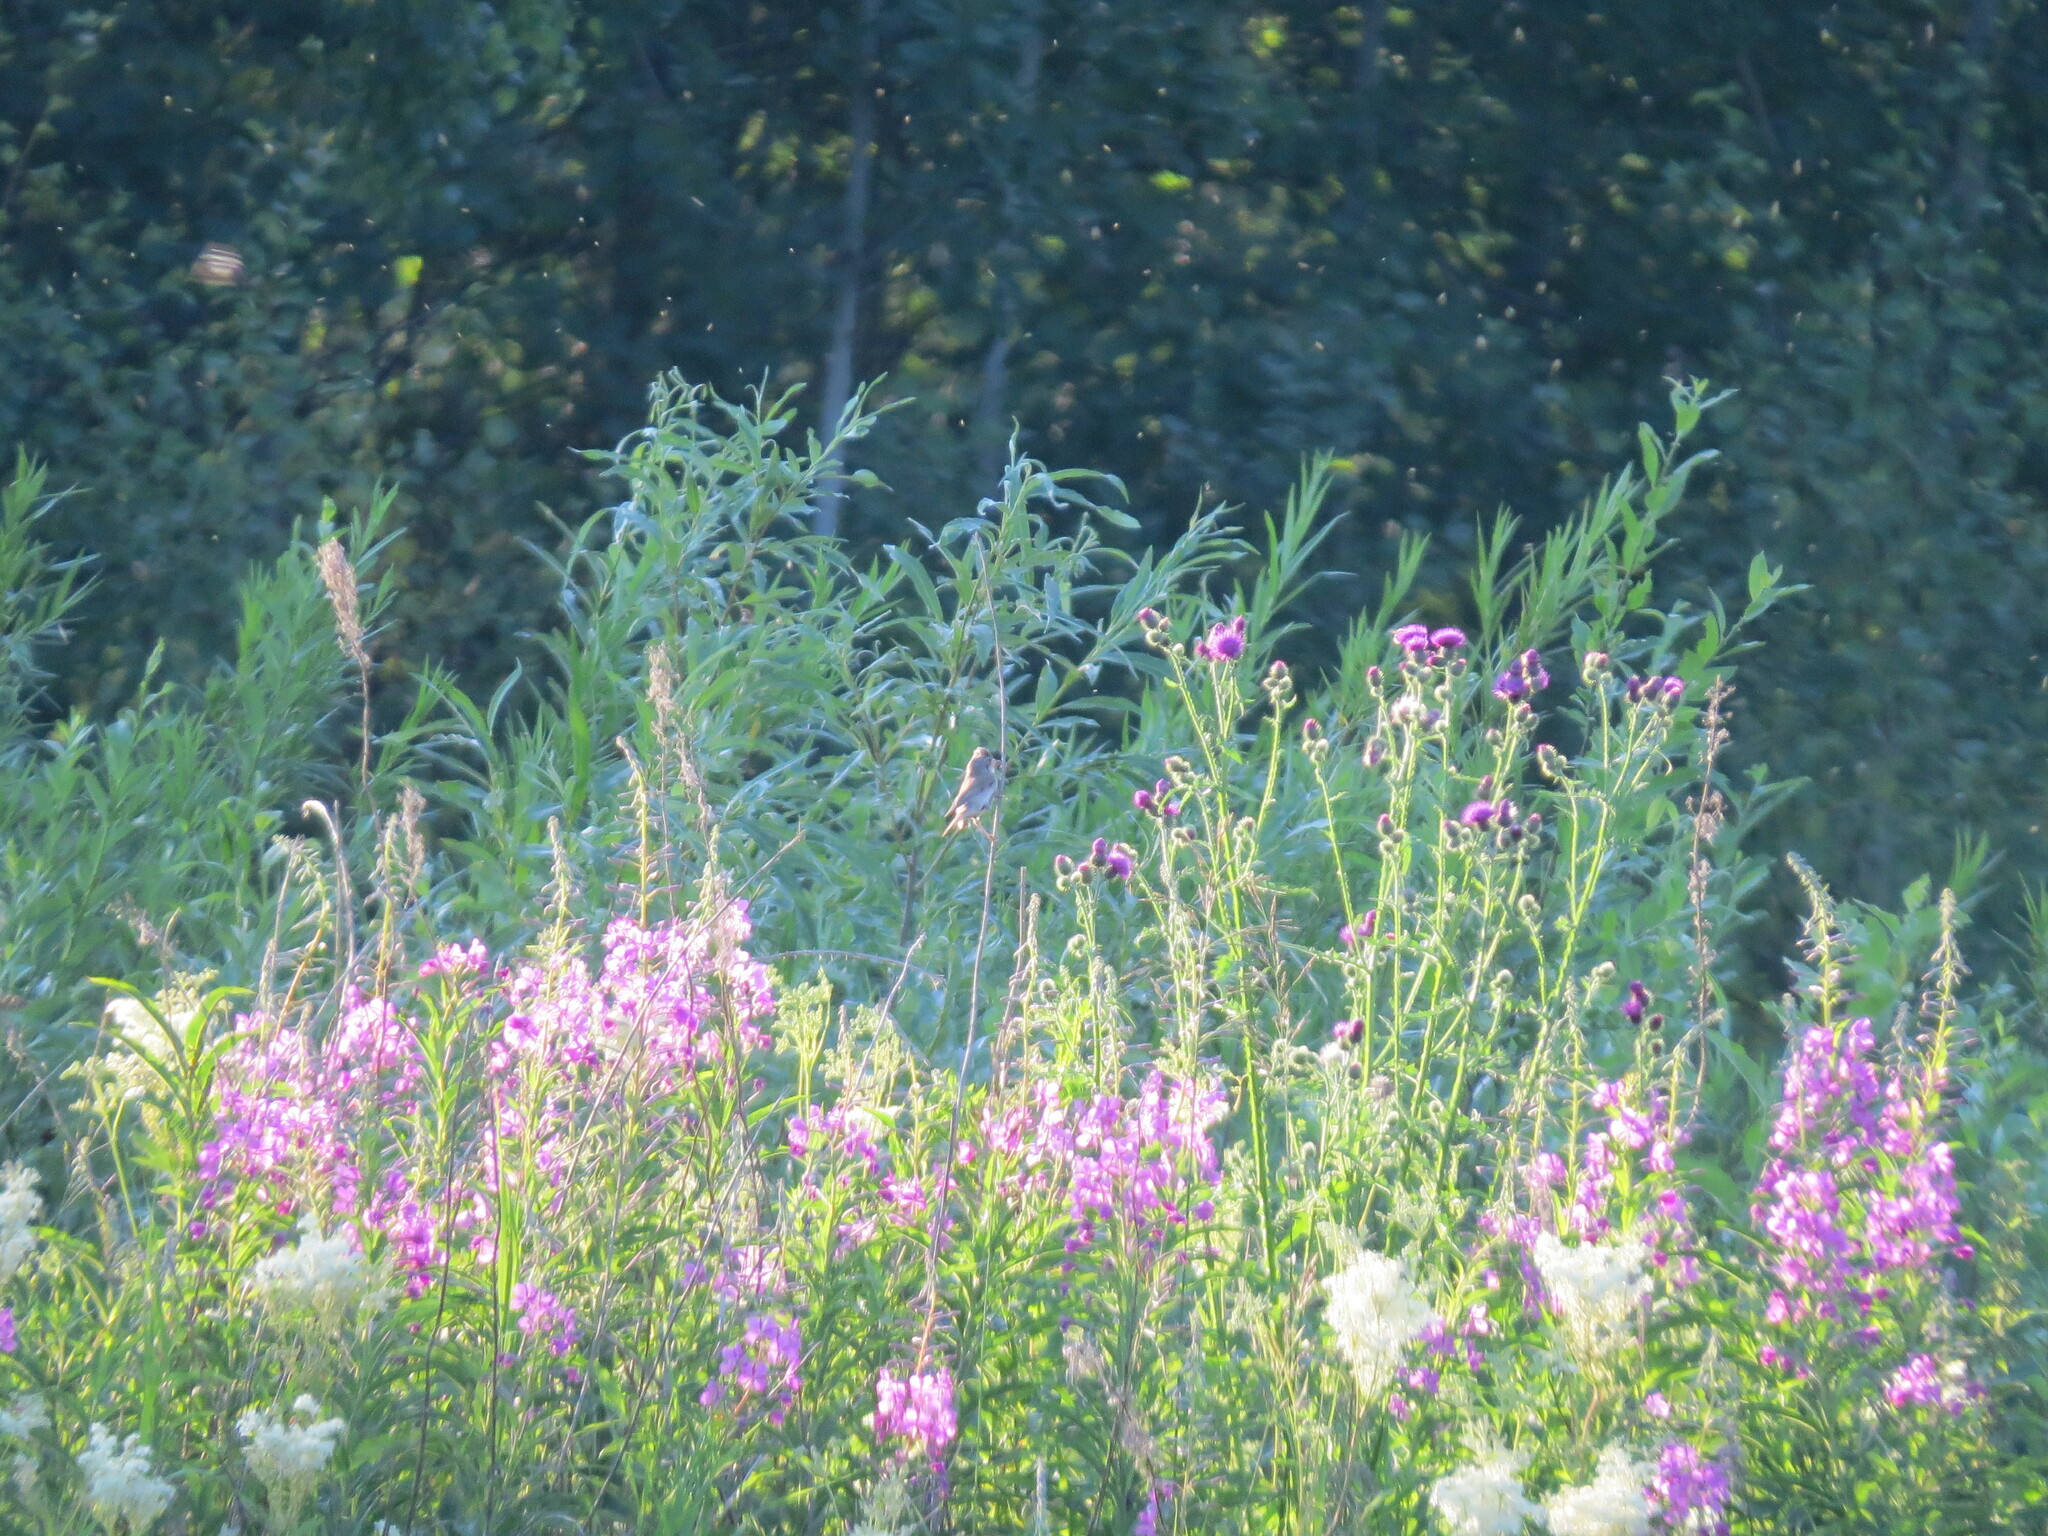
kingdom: Animalia
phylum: Chordata
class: Aves
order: Passeriformes
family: Sylviidae
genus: Sylvia
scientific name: Sylvia communis
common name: Common whitethroat
